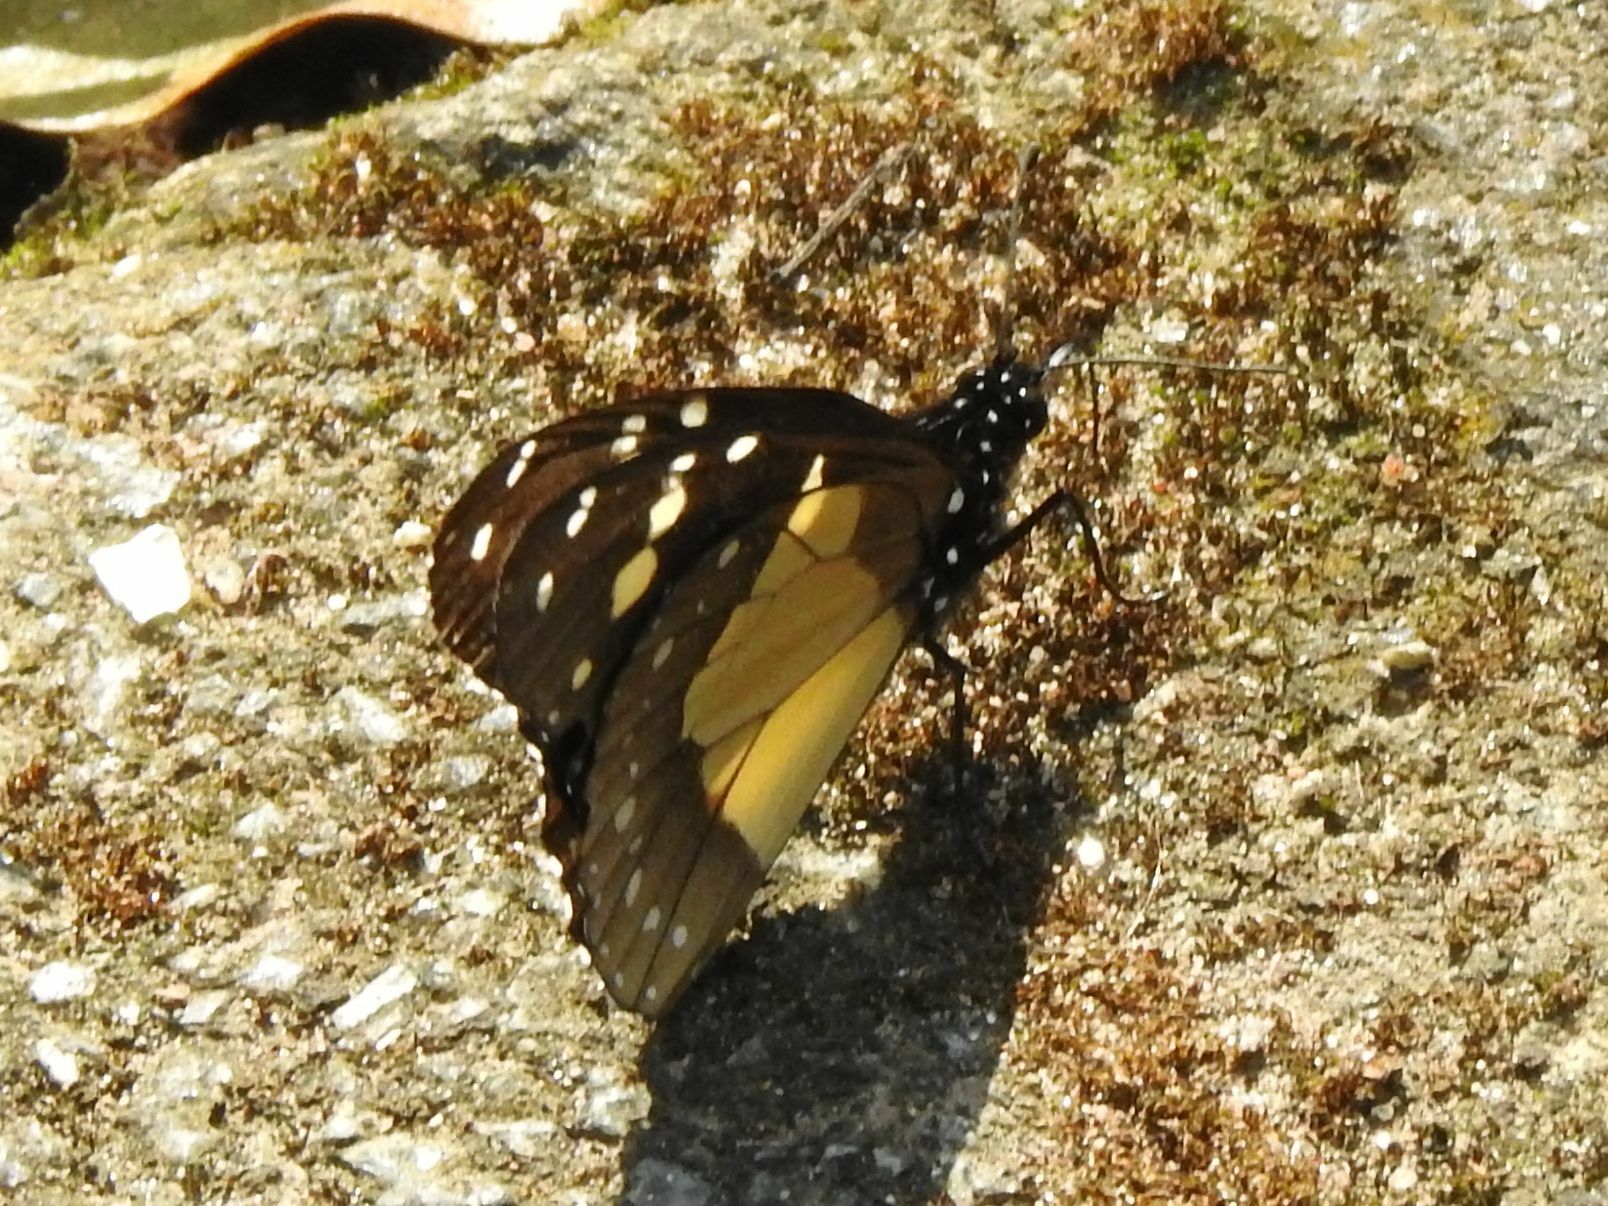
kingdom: Animalia
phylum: Arthropoda
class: Insecta
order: Lepidoptera
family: Nymphalidae
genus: Amauris
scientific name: Amauris echeria
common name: Chief
